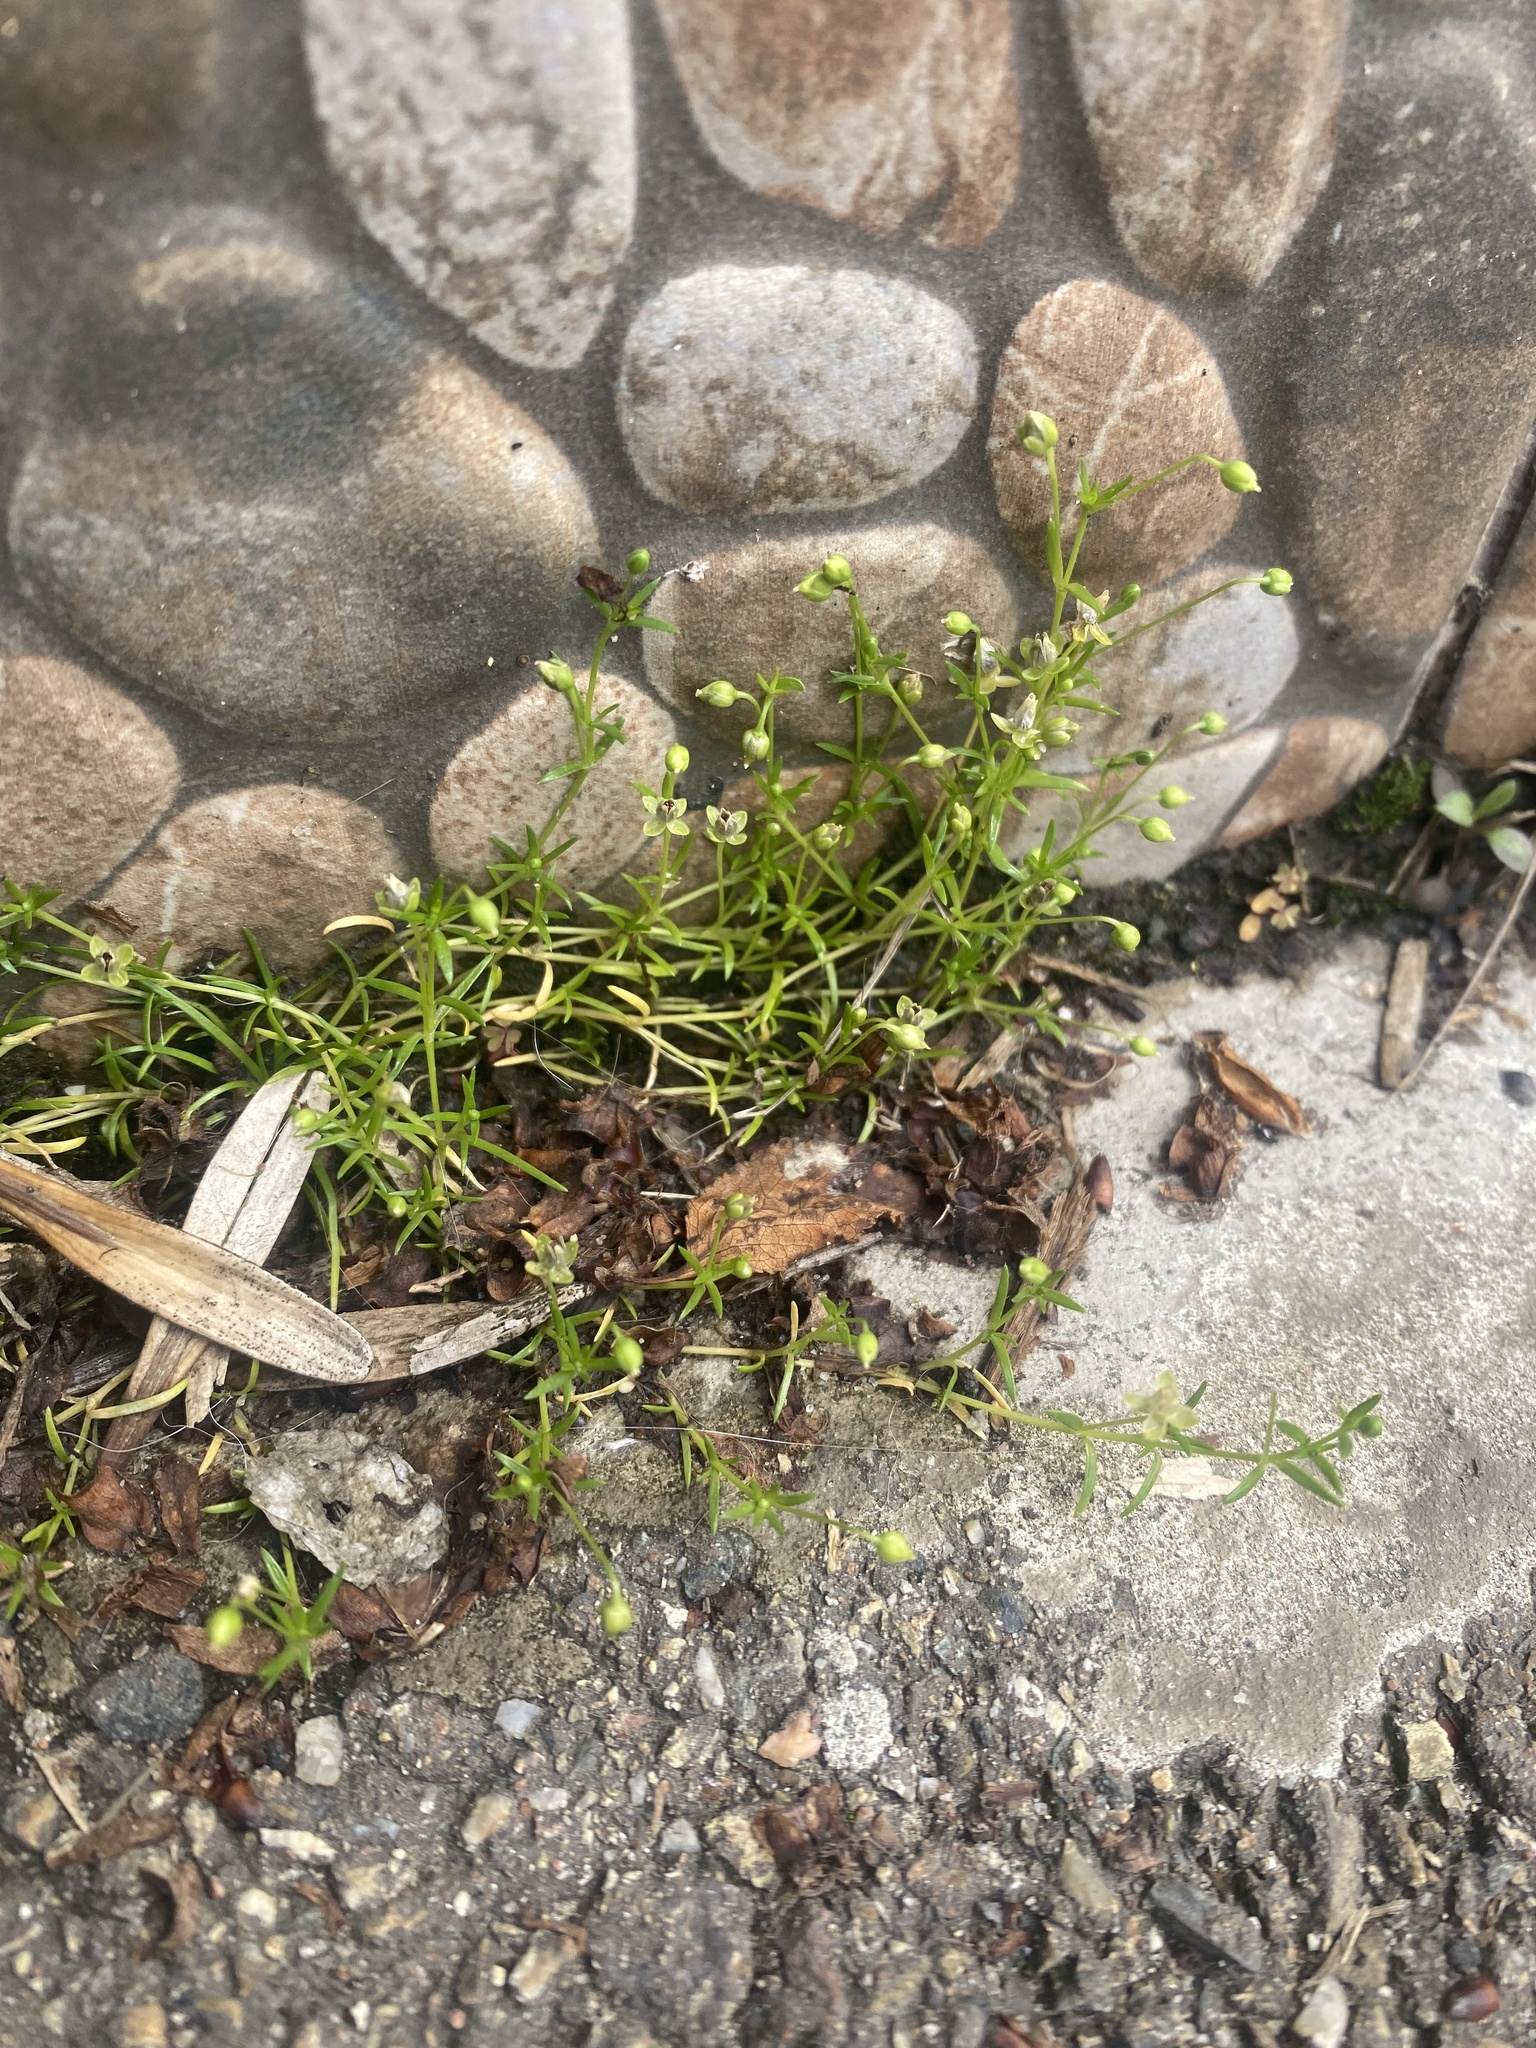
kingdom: Plantae
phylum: Tracheophyta
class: Magnoliopsida
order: Caryophyllales
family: Caryophyllaceae
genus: Sagina
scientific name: Sagina procumbens
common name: Procumbent pearlwort
